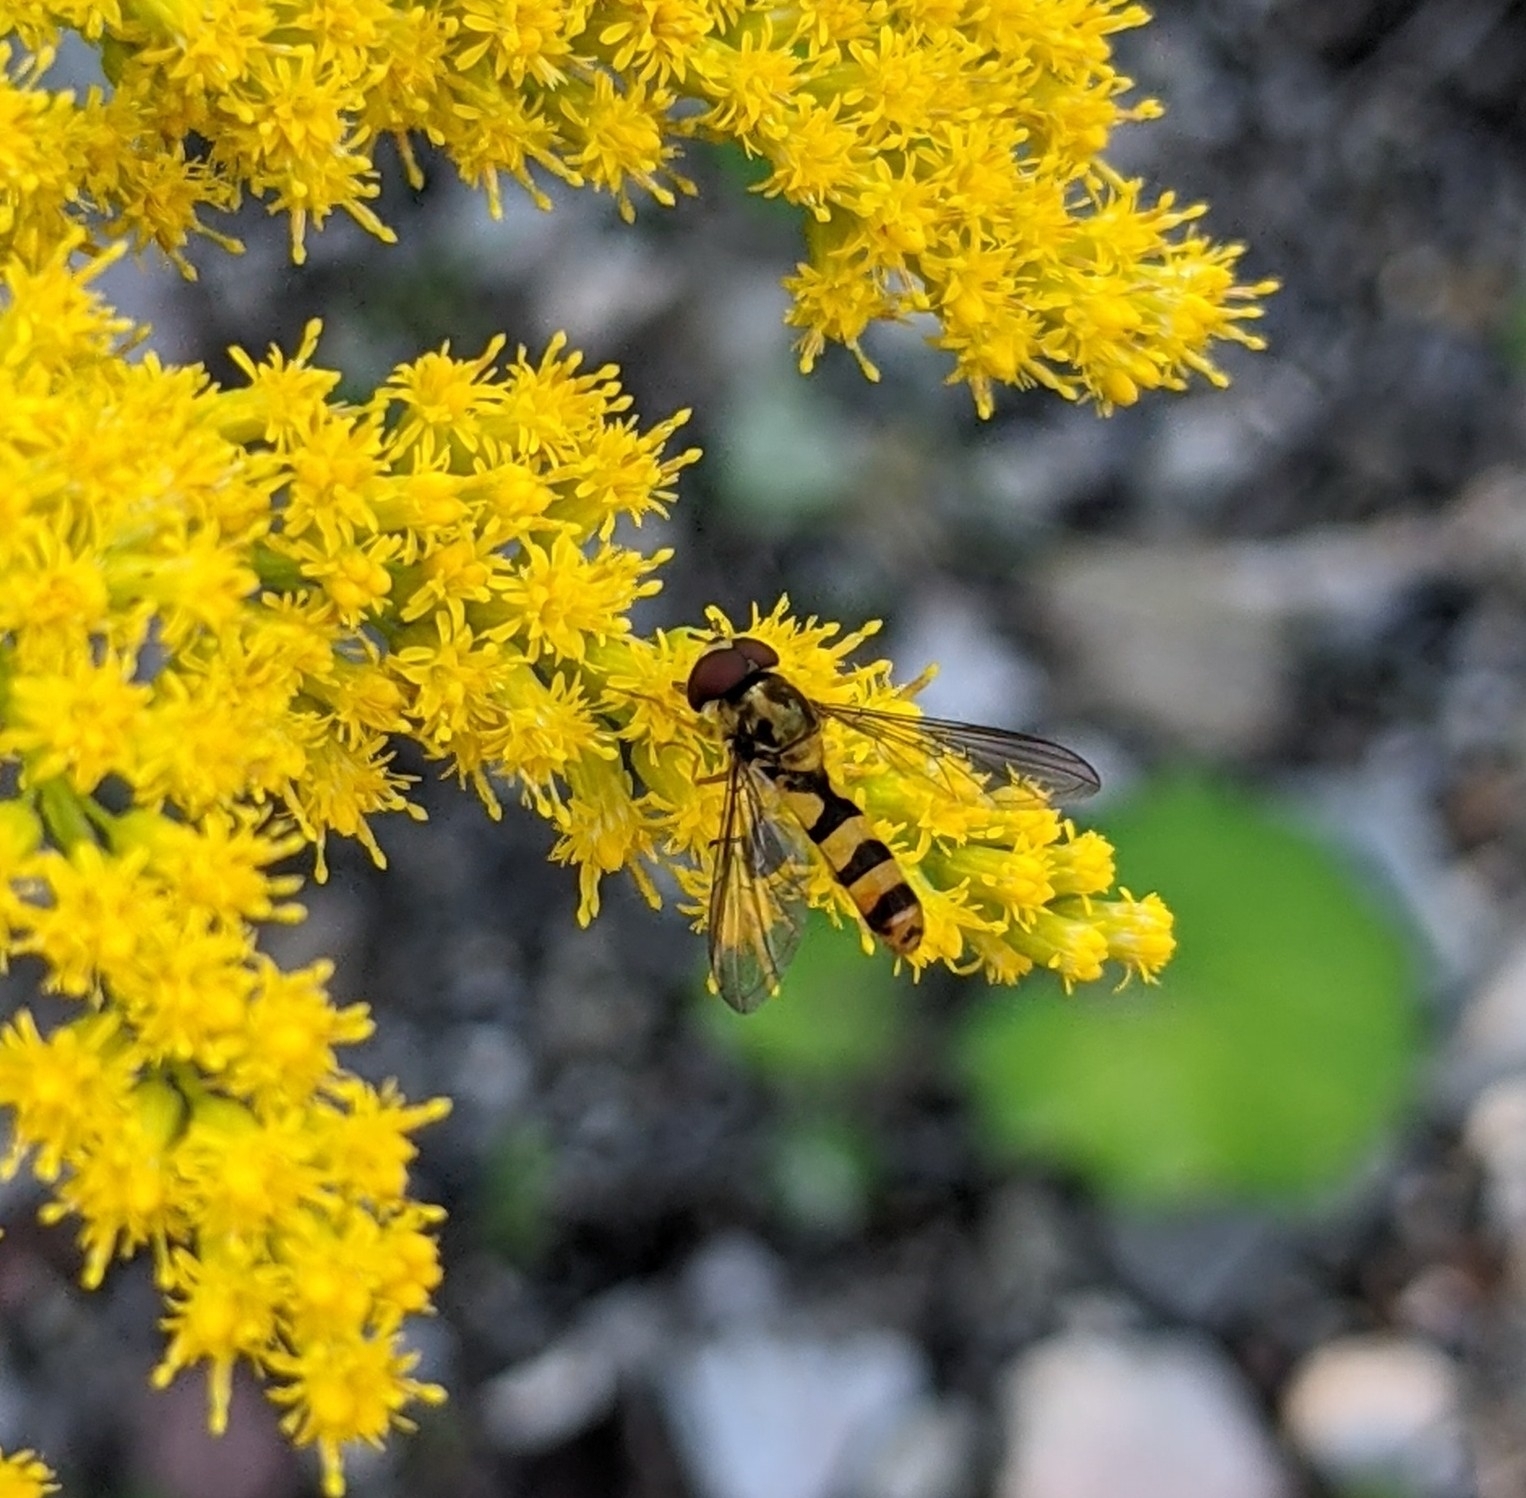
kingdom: Animalia
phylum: Arthropoda
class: Insecta
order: Diptera
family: Syrphidae
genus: Meliscaeva
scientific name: Meliscaeva cinctella
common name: American thintail fly
